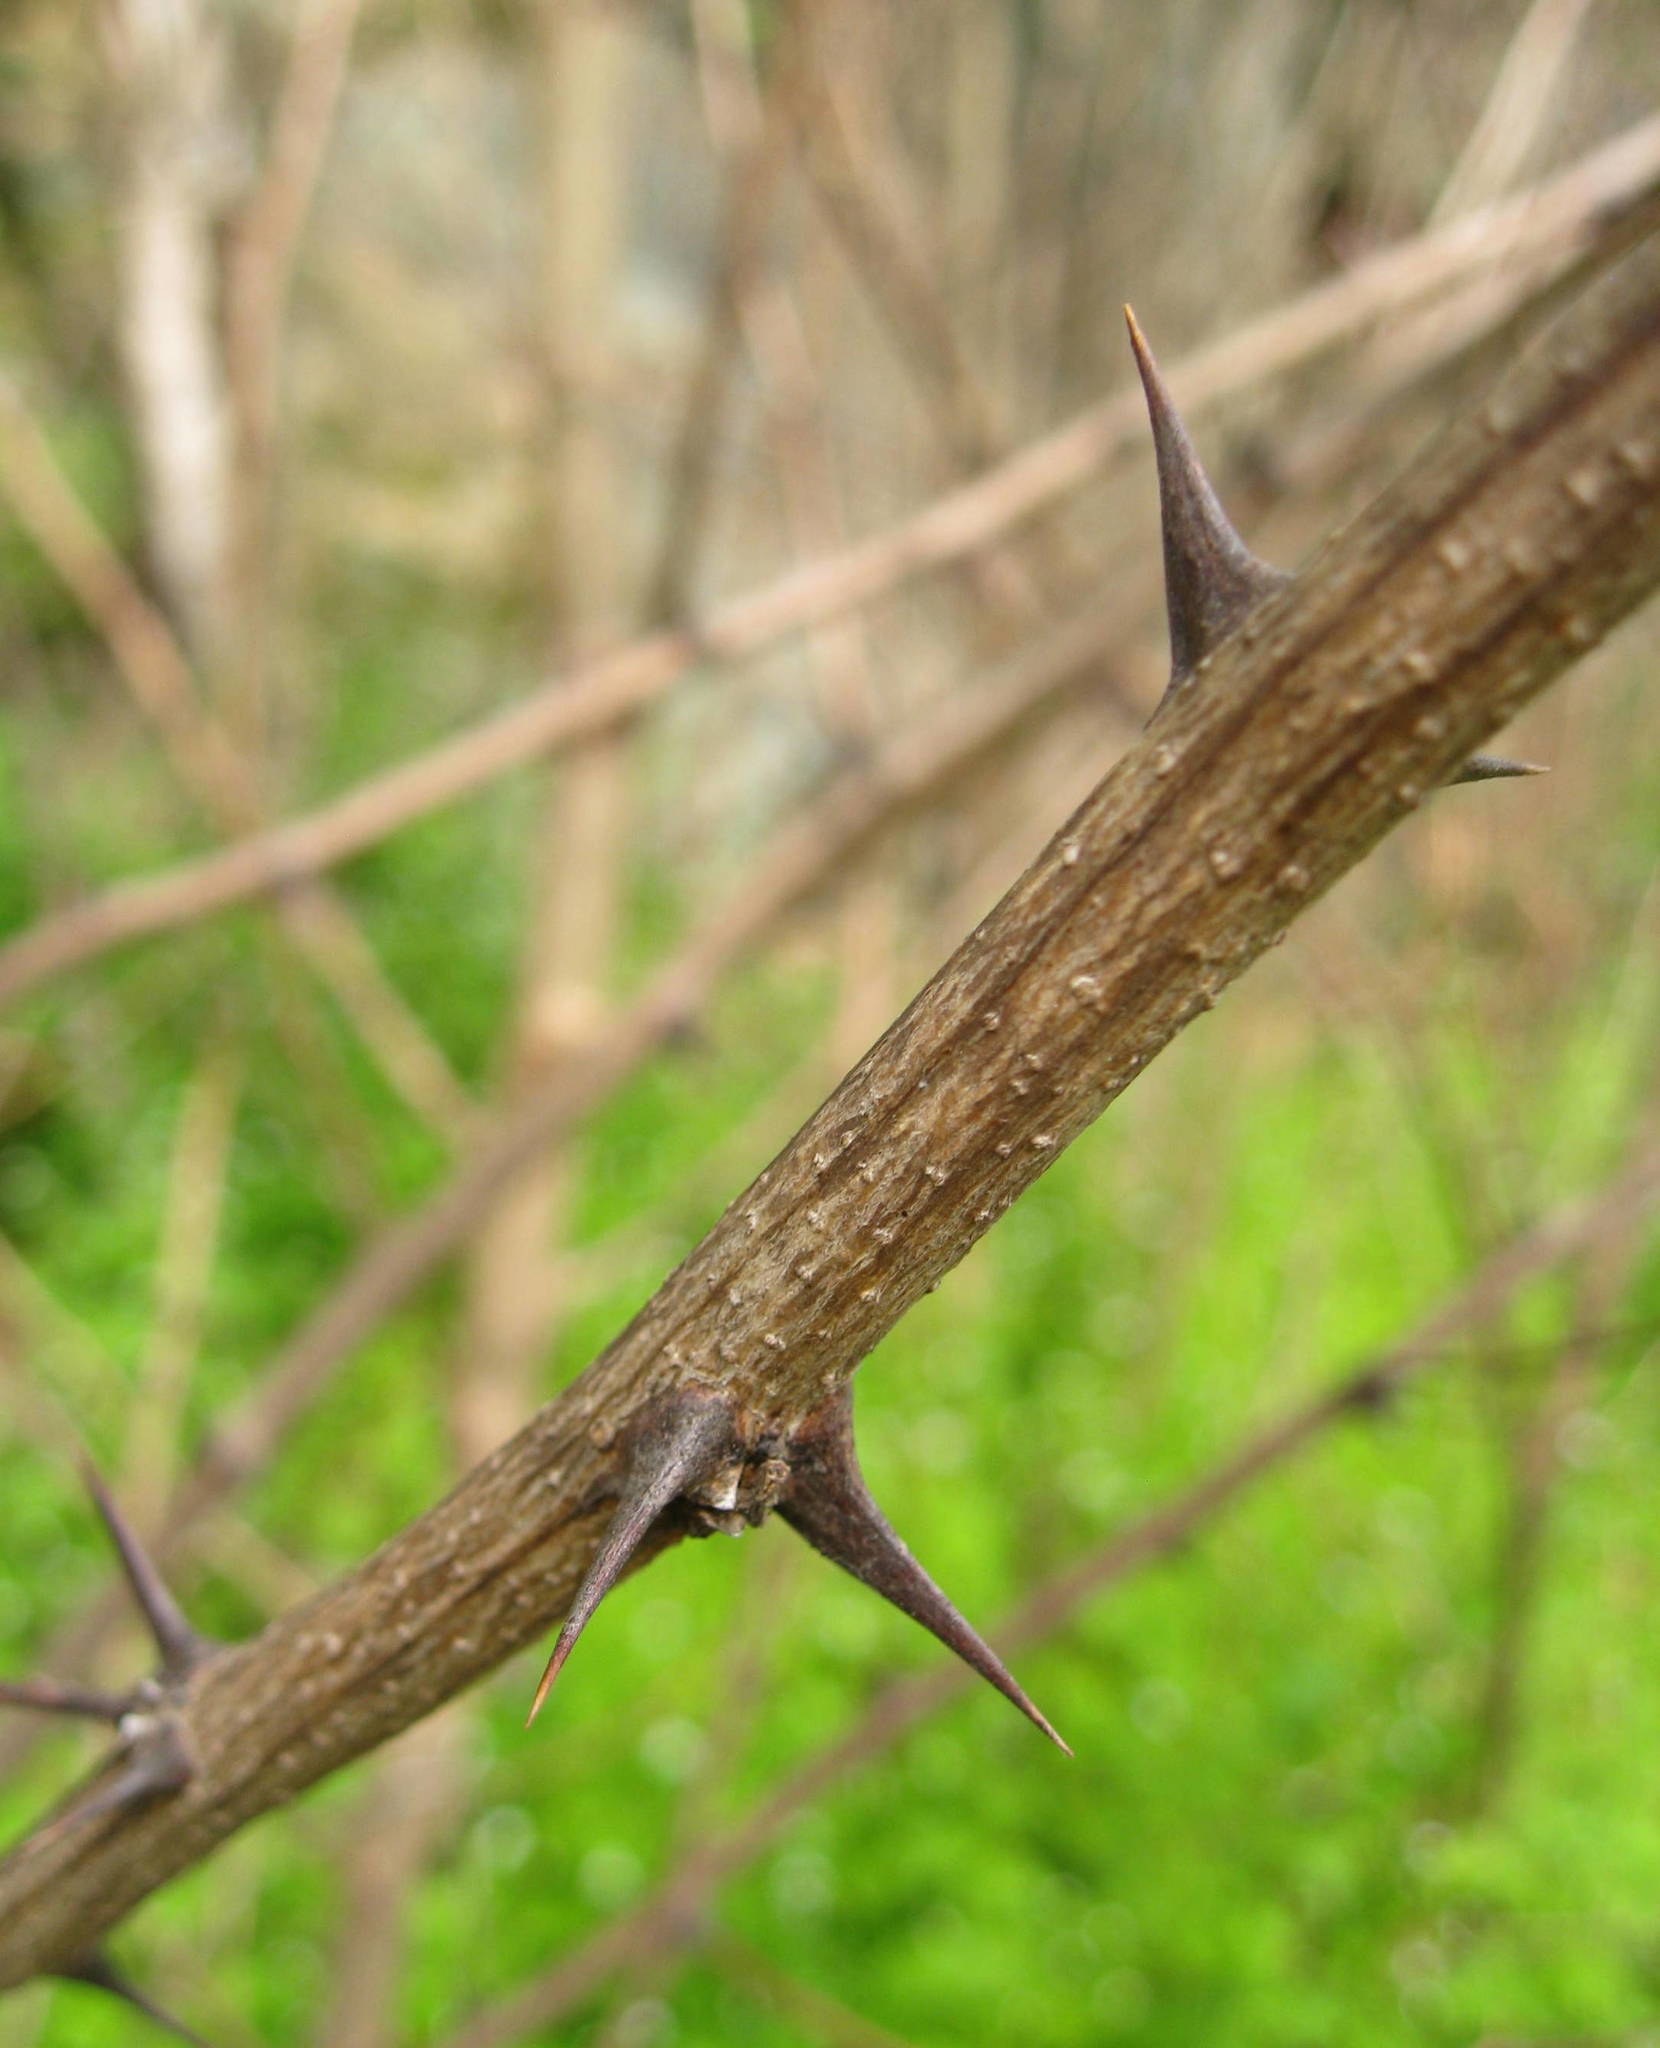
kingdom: Plantae
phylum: Tracheophyta
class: Magnoliopsida
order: Fabales
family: Fabaceae
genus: Robinia
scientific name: Robinia pseudoacacia
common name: Black locust
